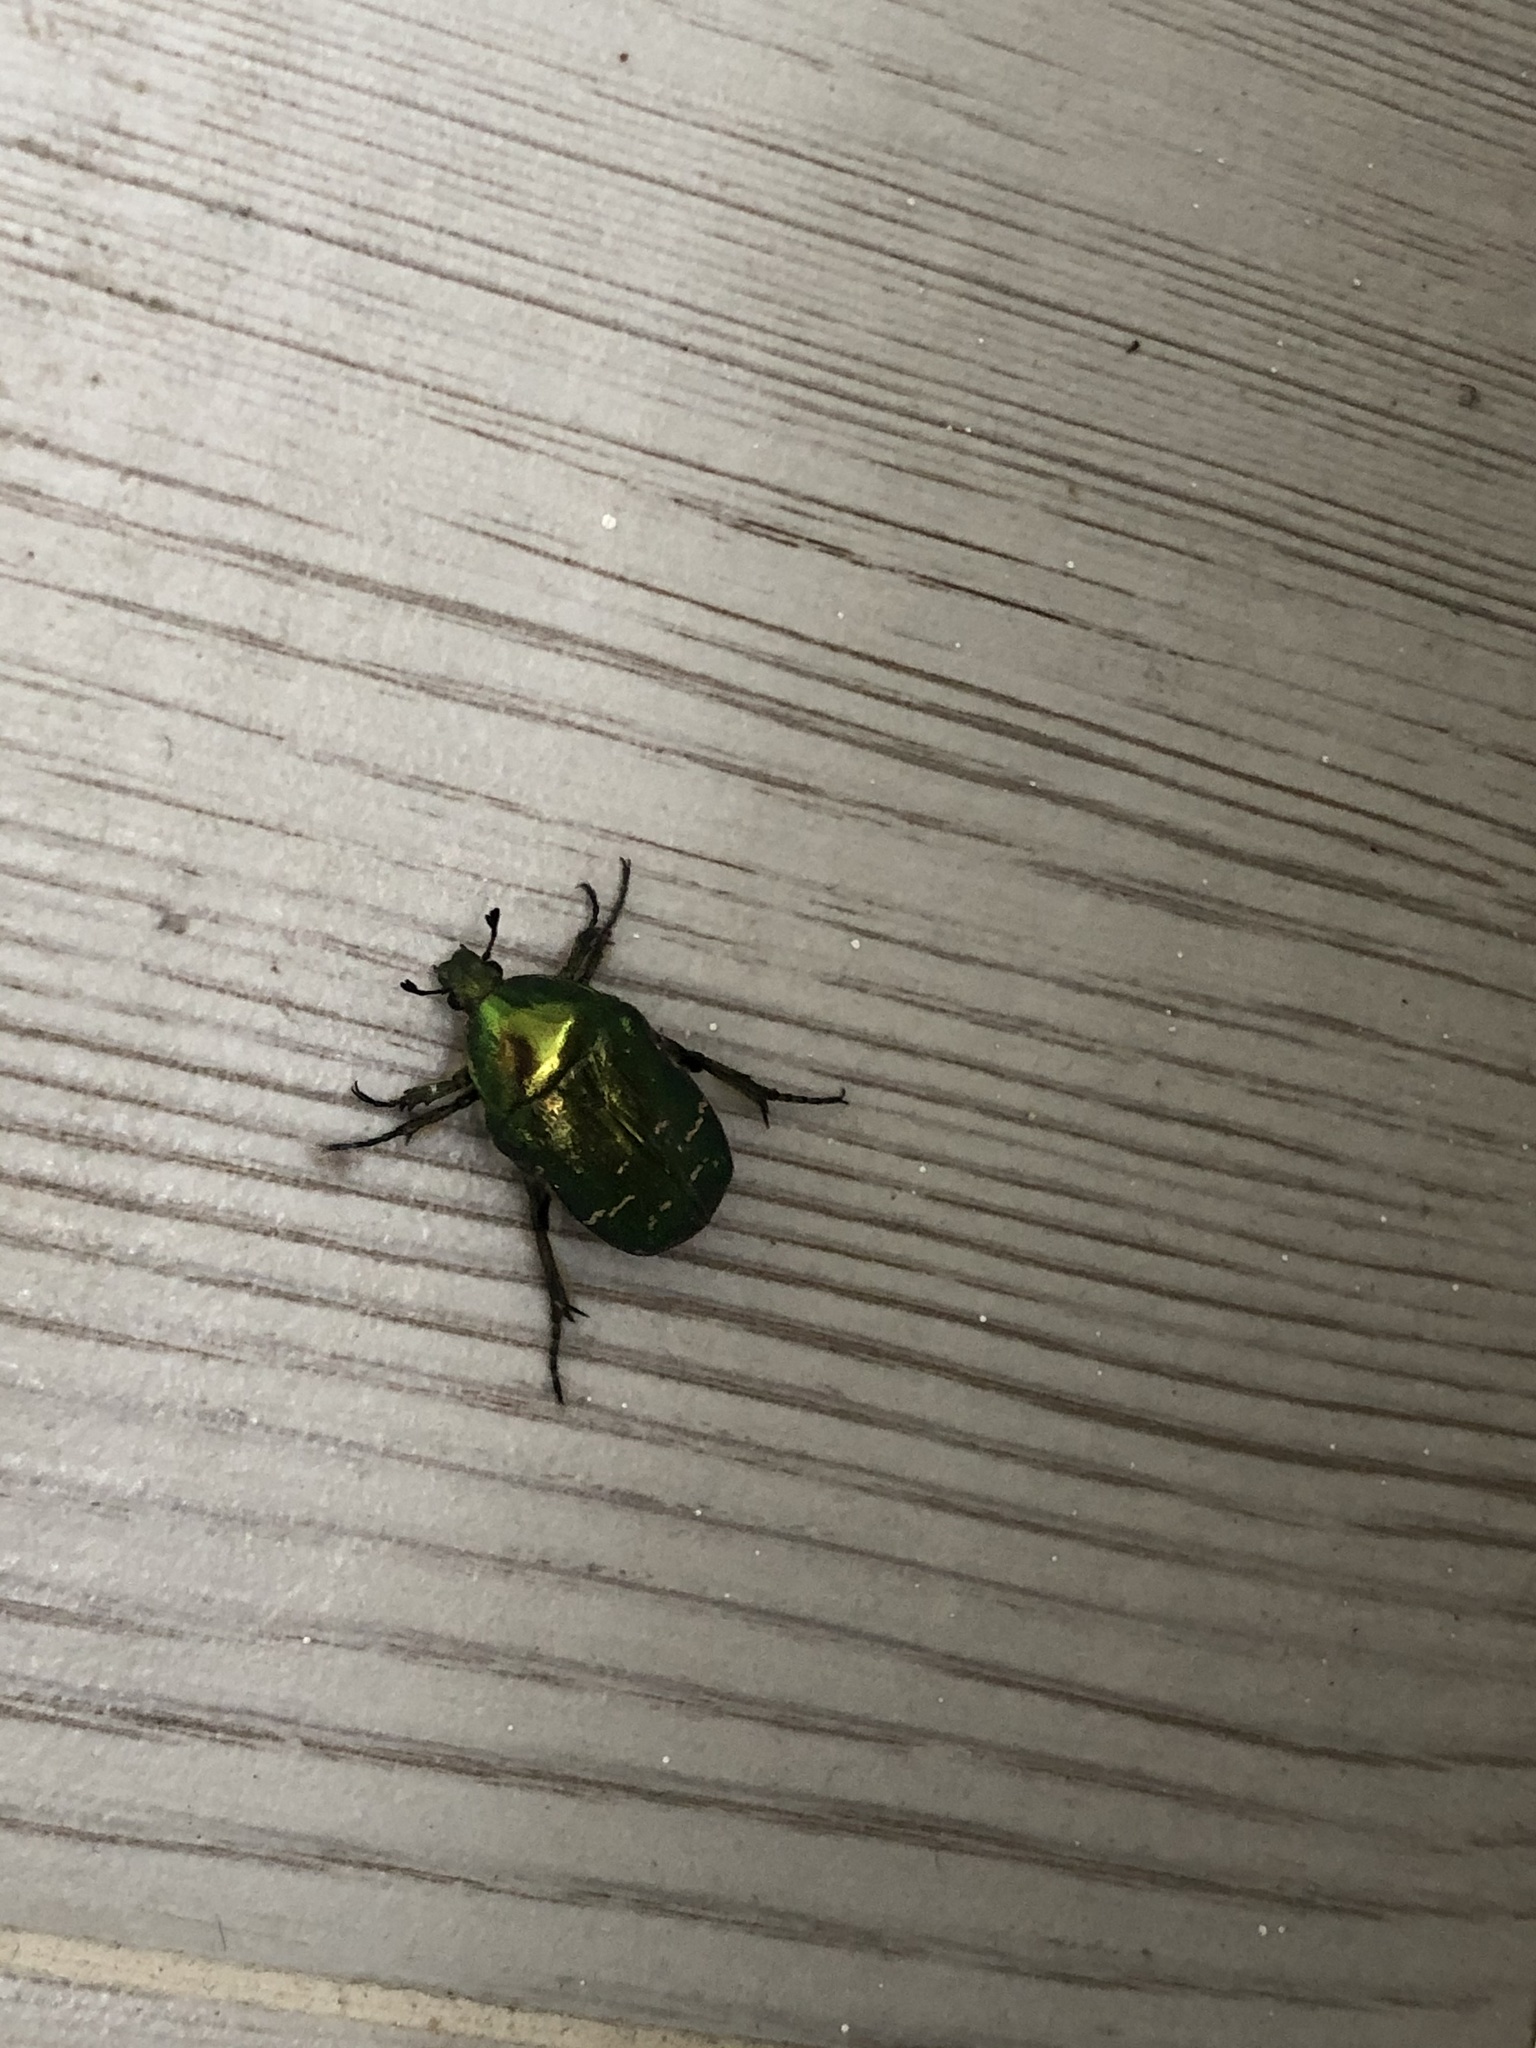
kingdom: Animalia
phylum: Arthropoda
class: Insecta
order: Coleoptera
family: Scarabaeidae
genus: Cetonia
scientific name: Cetonia aurata
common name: Rose chafer
